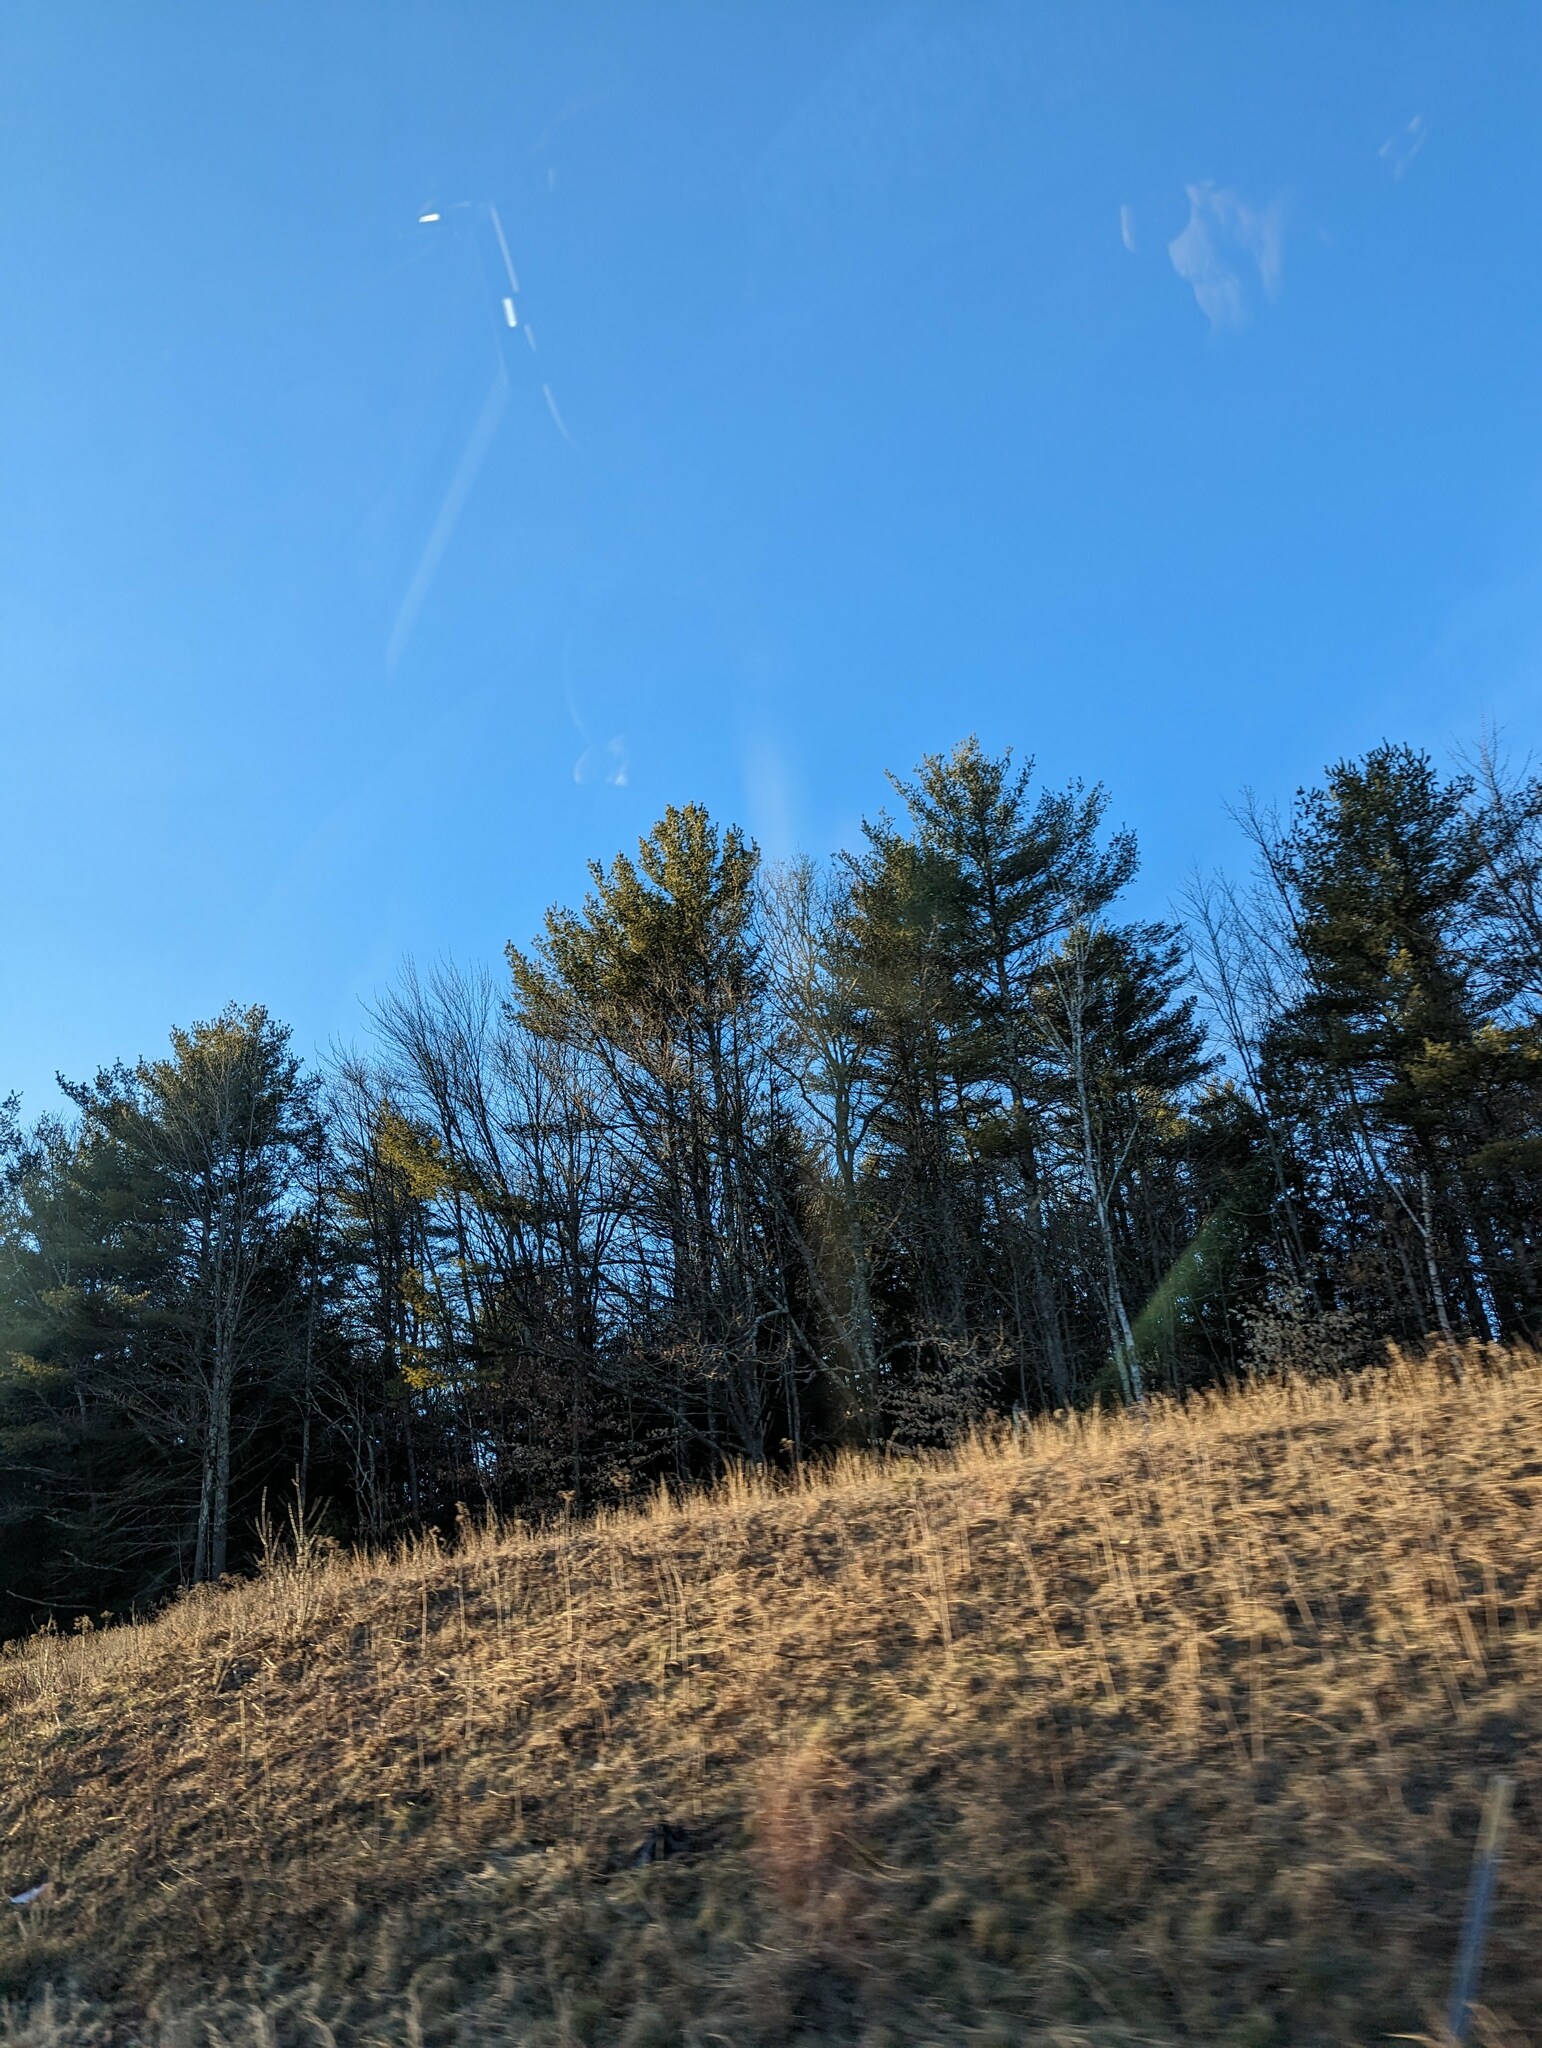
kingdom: Plantae
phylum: Tracheophyta
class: Pinopsida
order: Pinales
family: Pinaceae
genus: Pinus
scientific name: Pinus strobus
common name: Weymouth pine
